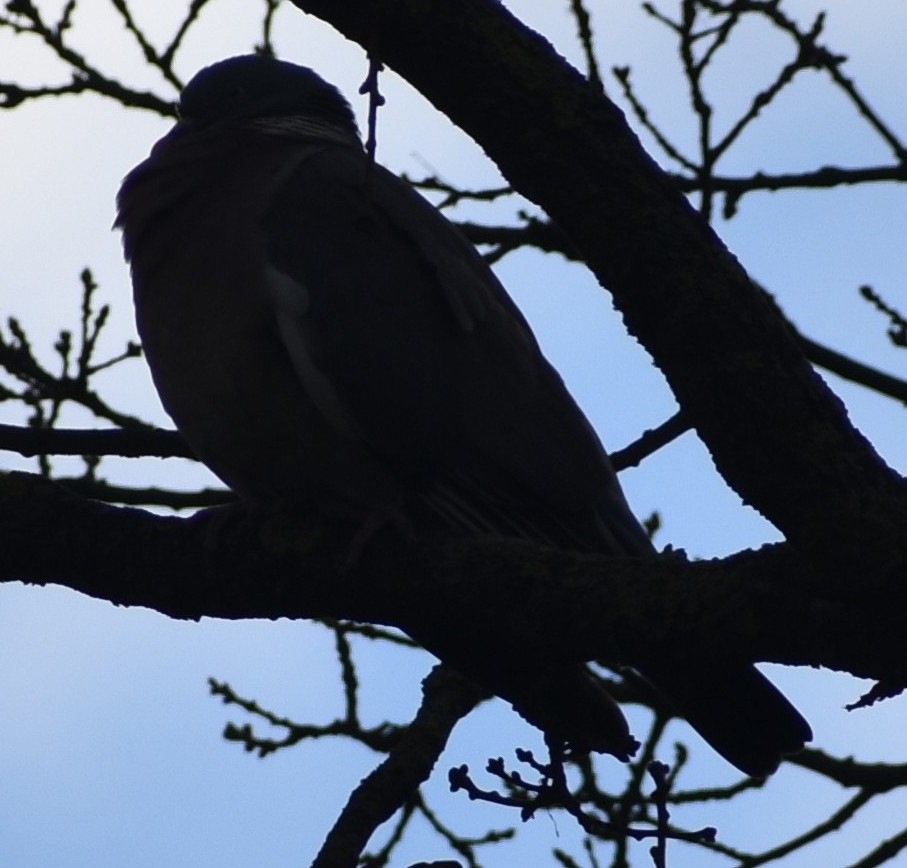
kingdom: Animalia
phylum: Chordata
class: Aves
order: Columbiformes
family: Columbidae
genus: Columba
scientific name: Columba palumbus
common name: Common wood pigeon
